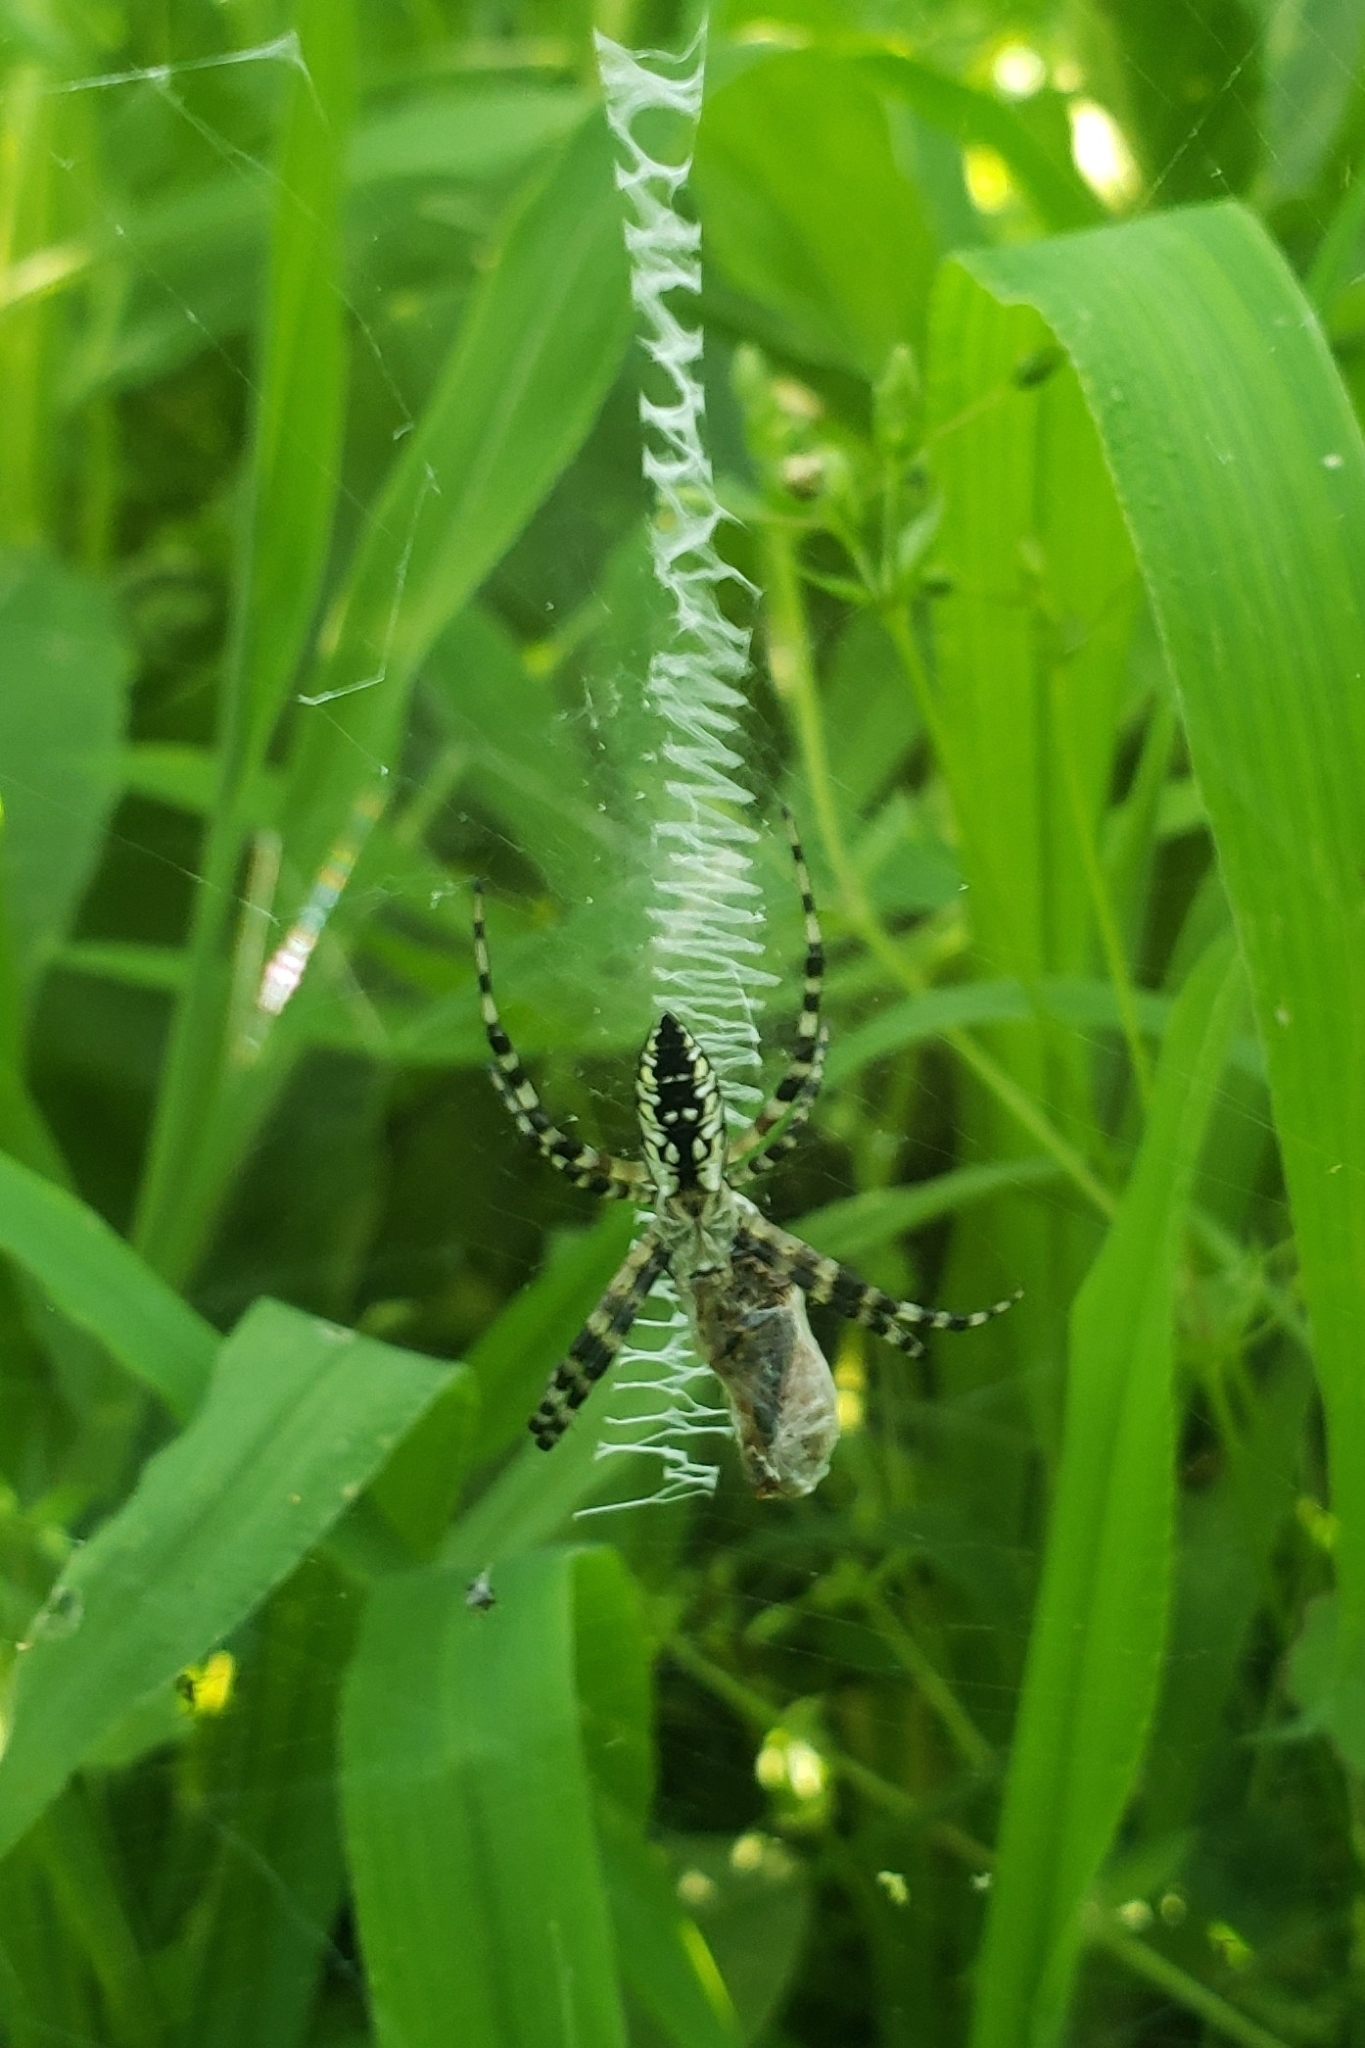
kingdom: Animalia
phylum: Arthropoda
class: Arachnida
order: Araneae
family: Araneidae
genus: Argiope
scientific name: Argiope aurantia
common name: Orb weavers
